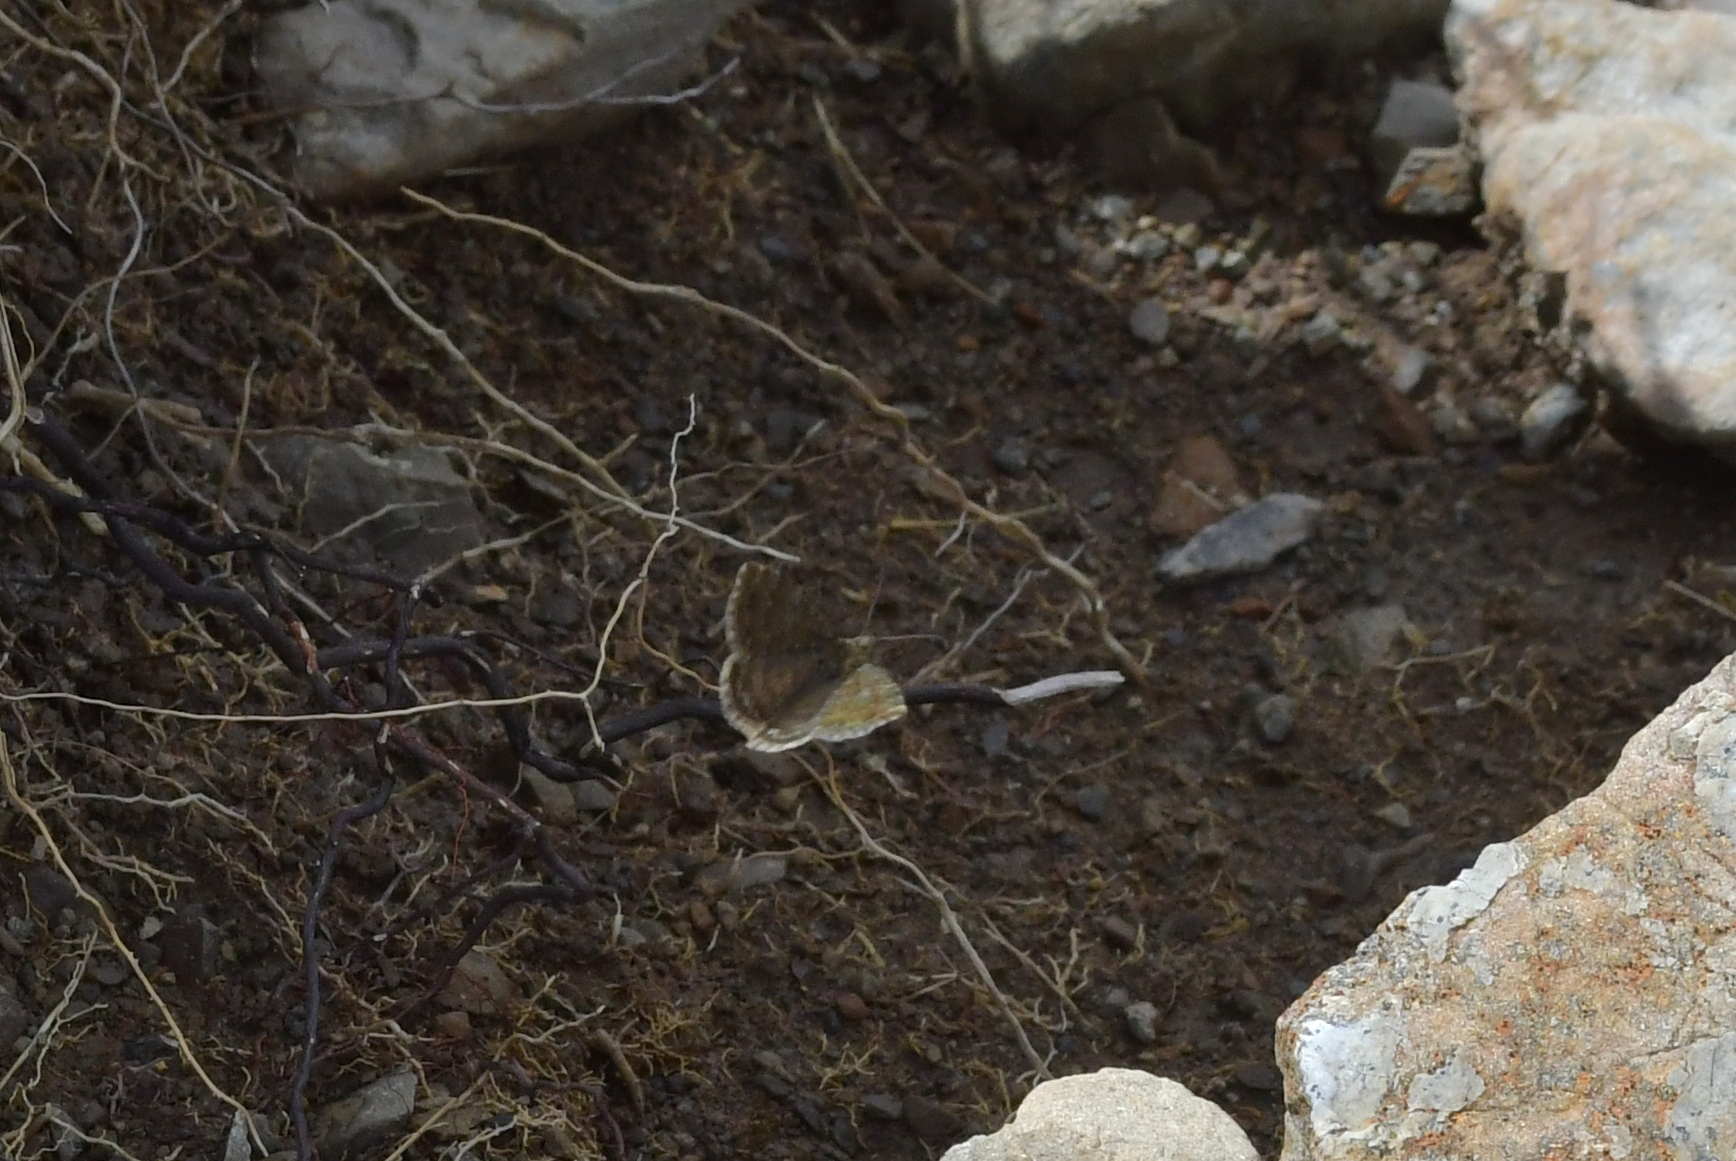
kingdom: Animalia
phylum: Arthropoda
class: Insecta
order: Lepidoptera
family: Geometridae
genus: Dasyuris
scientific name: Dasyuris anceps
